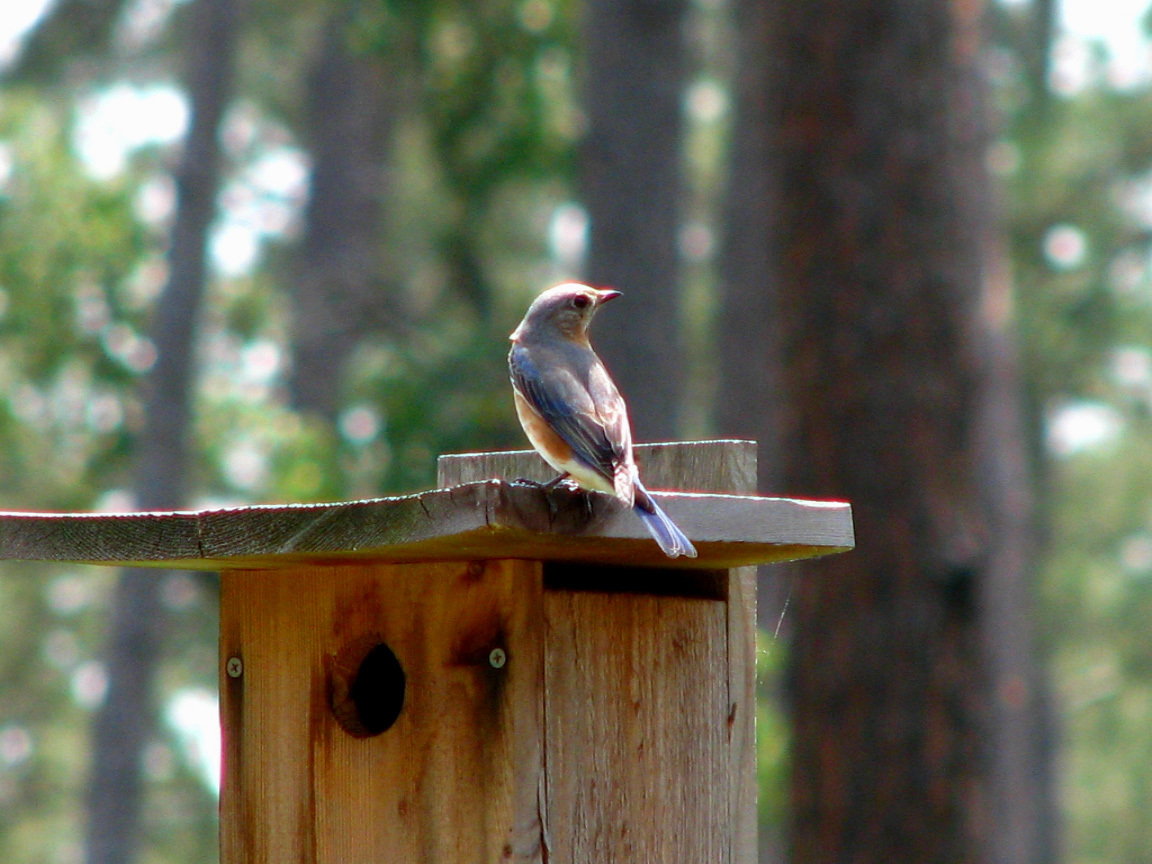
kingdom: Animalia
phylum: Chordata
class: Aves
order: Passeriformes
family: Turdidae
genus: Sialia
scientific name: Sialia sialis
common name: Eastern bluebird
